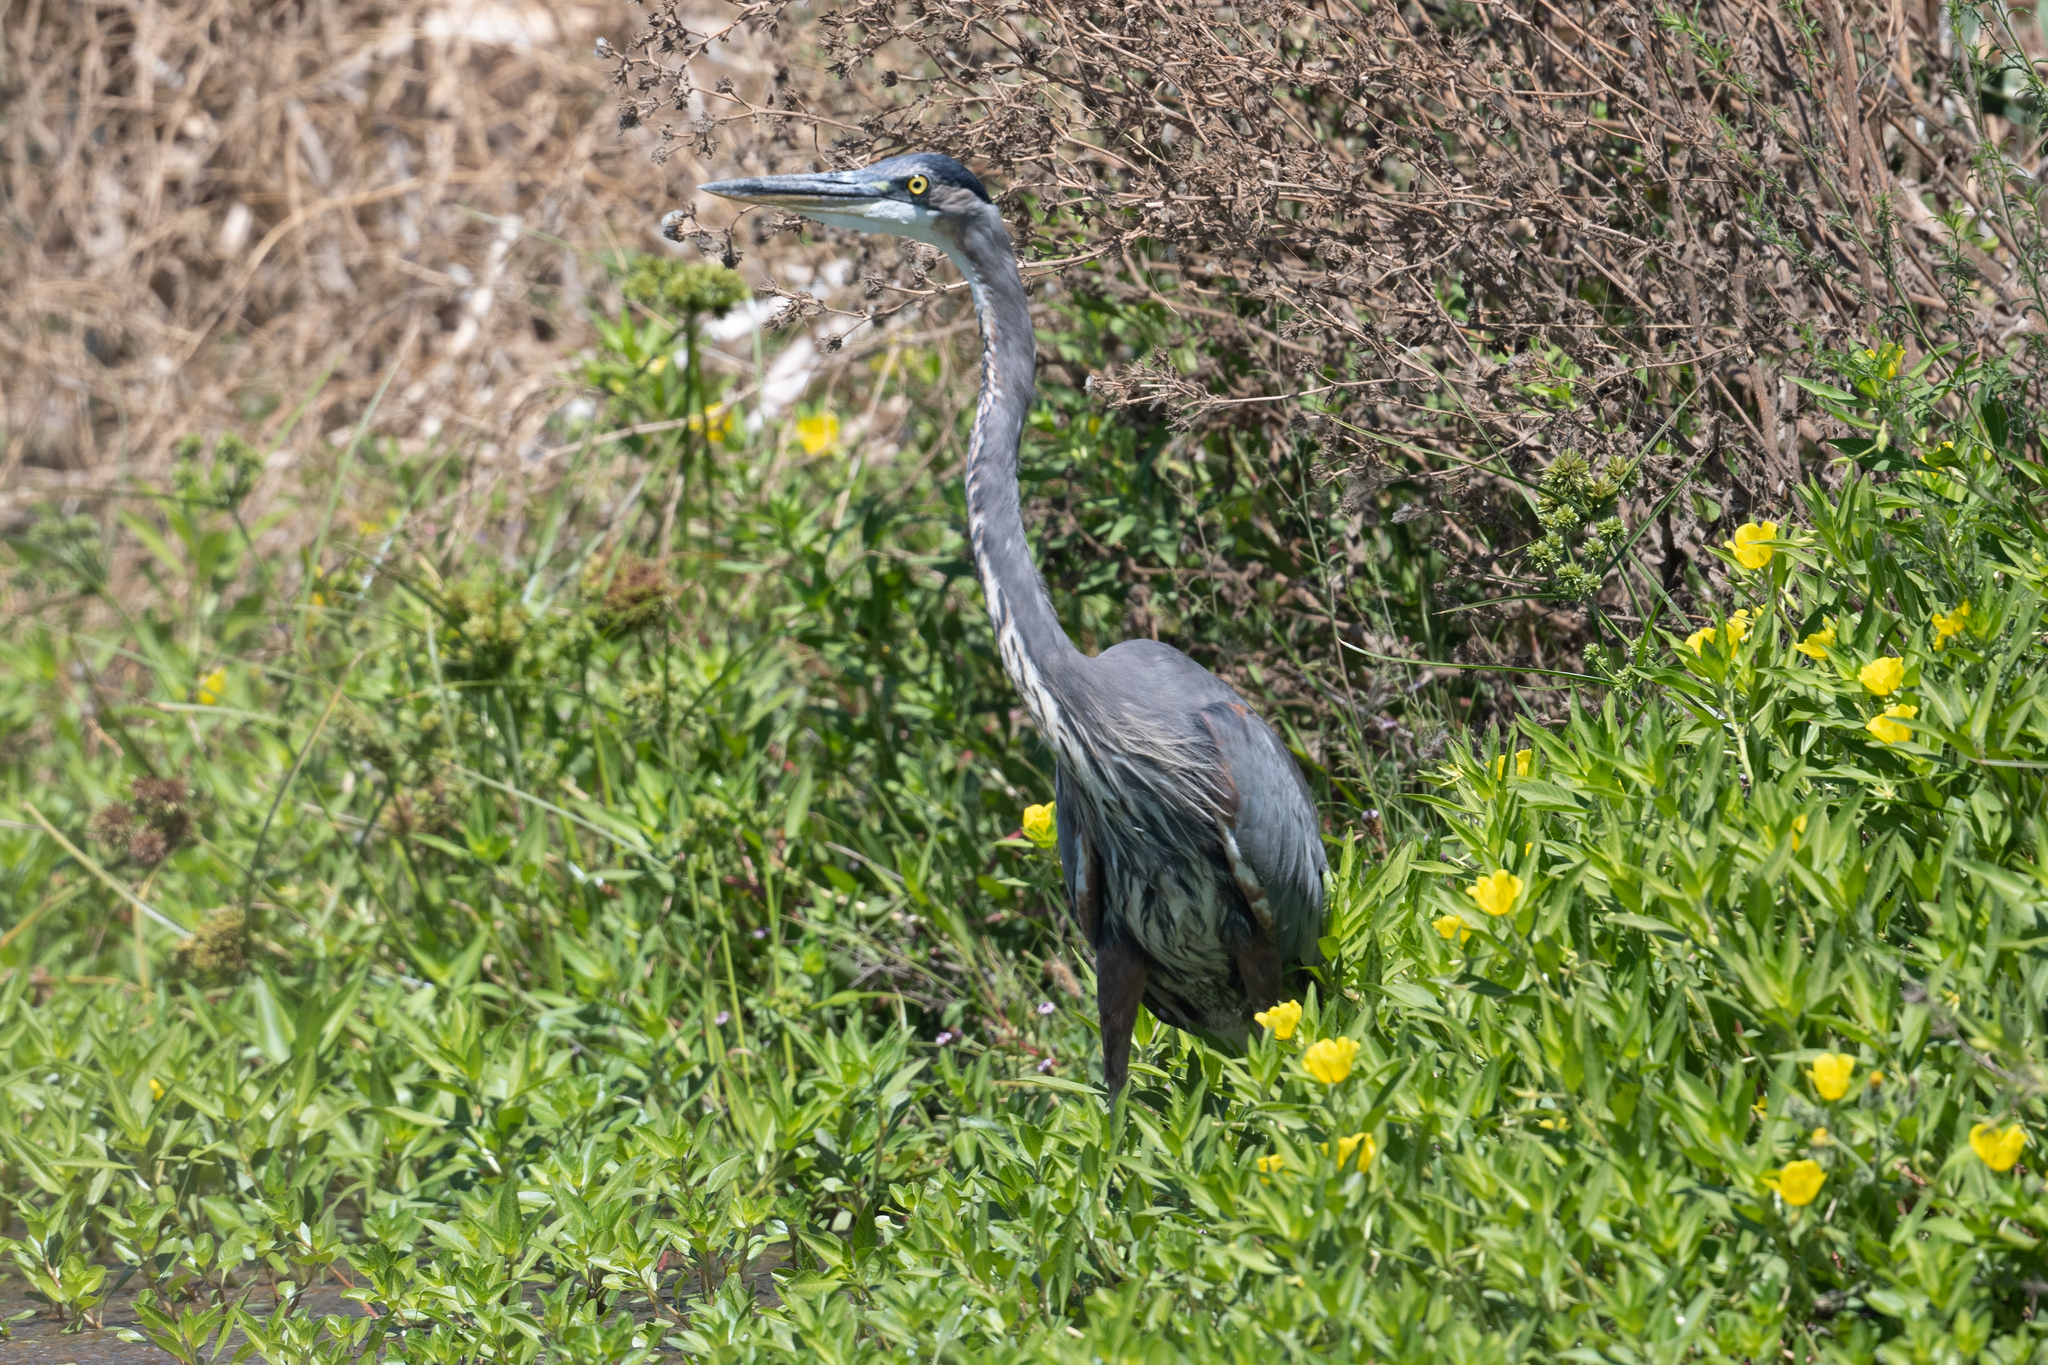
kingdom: Animalia
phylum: Chordata
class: Aves
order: Pelecaniformes
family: Ardeidae
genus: Ardea
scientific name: Ardea herodias
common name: Great blue heron
